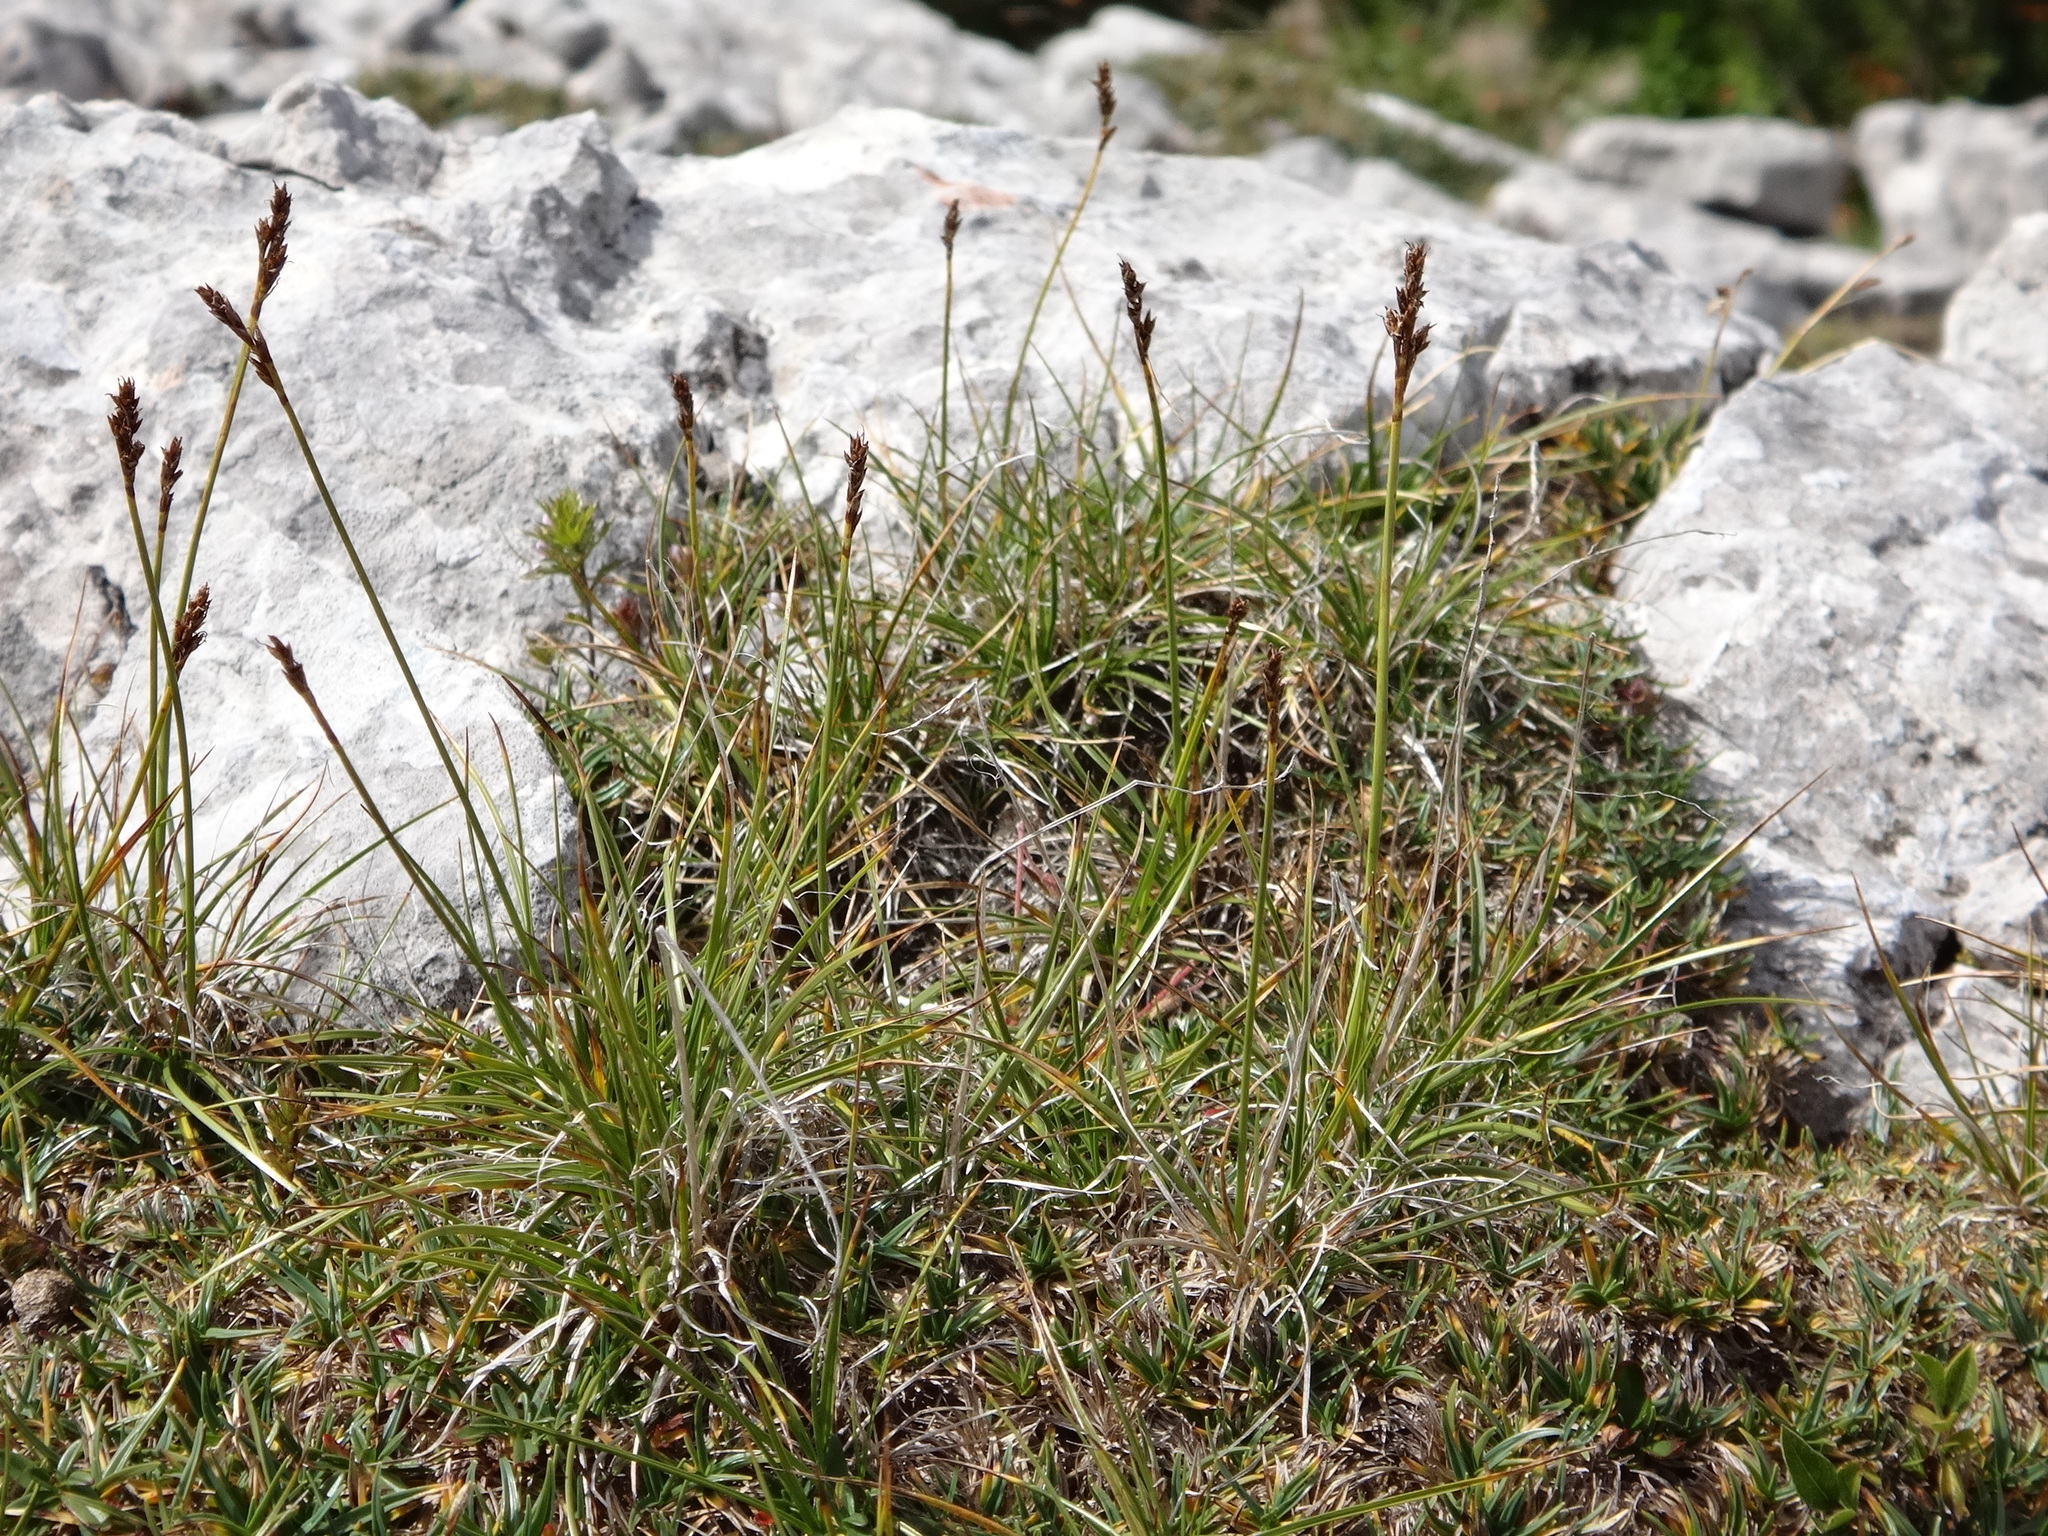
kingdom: Plantae
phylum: Tracheophyta
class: Liliopsida
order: Poales
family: Cyperaceae
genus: Carex
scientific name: Carex simpliciuscula
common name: Simple bog sedge
